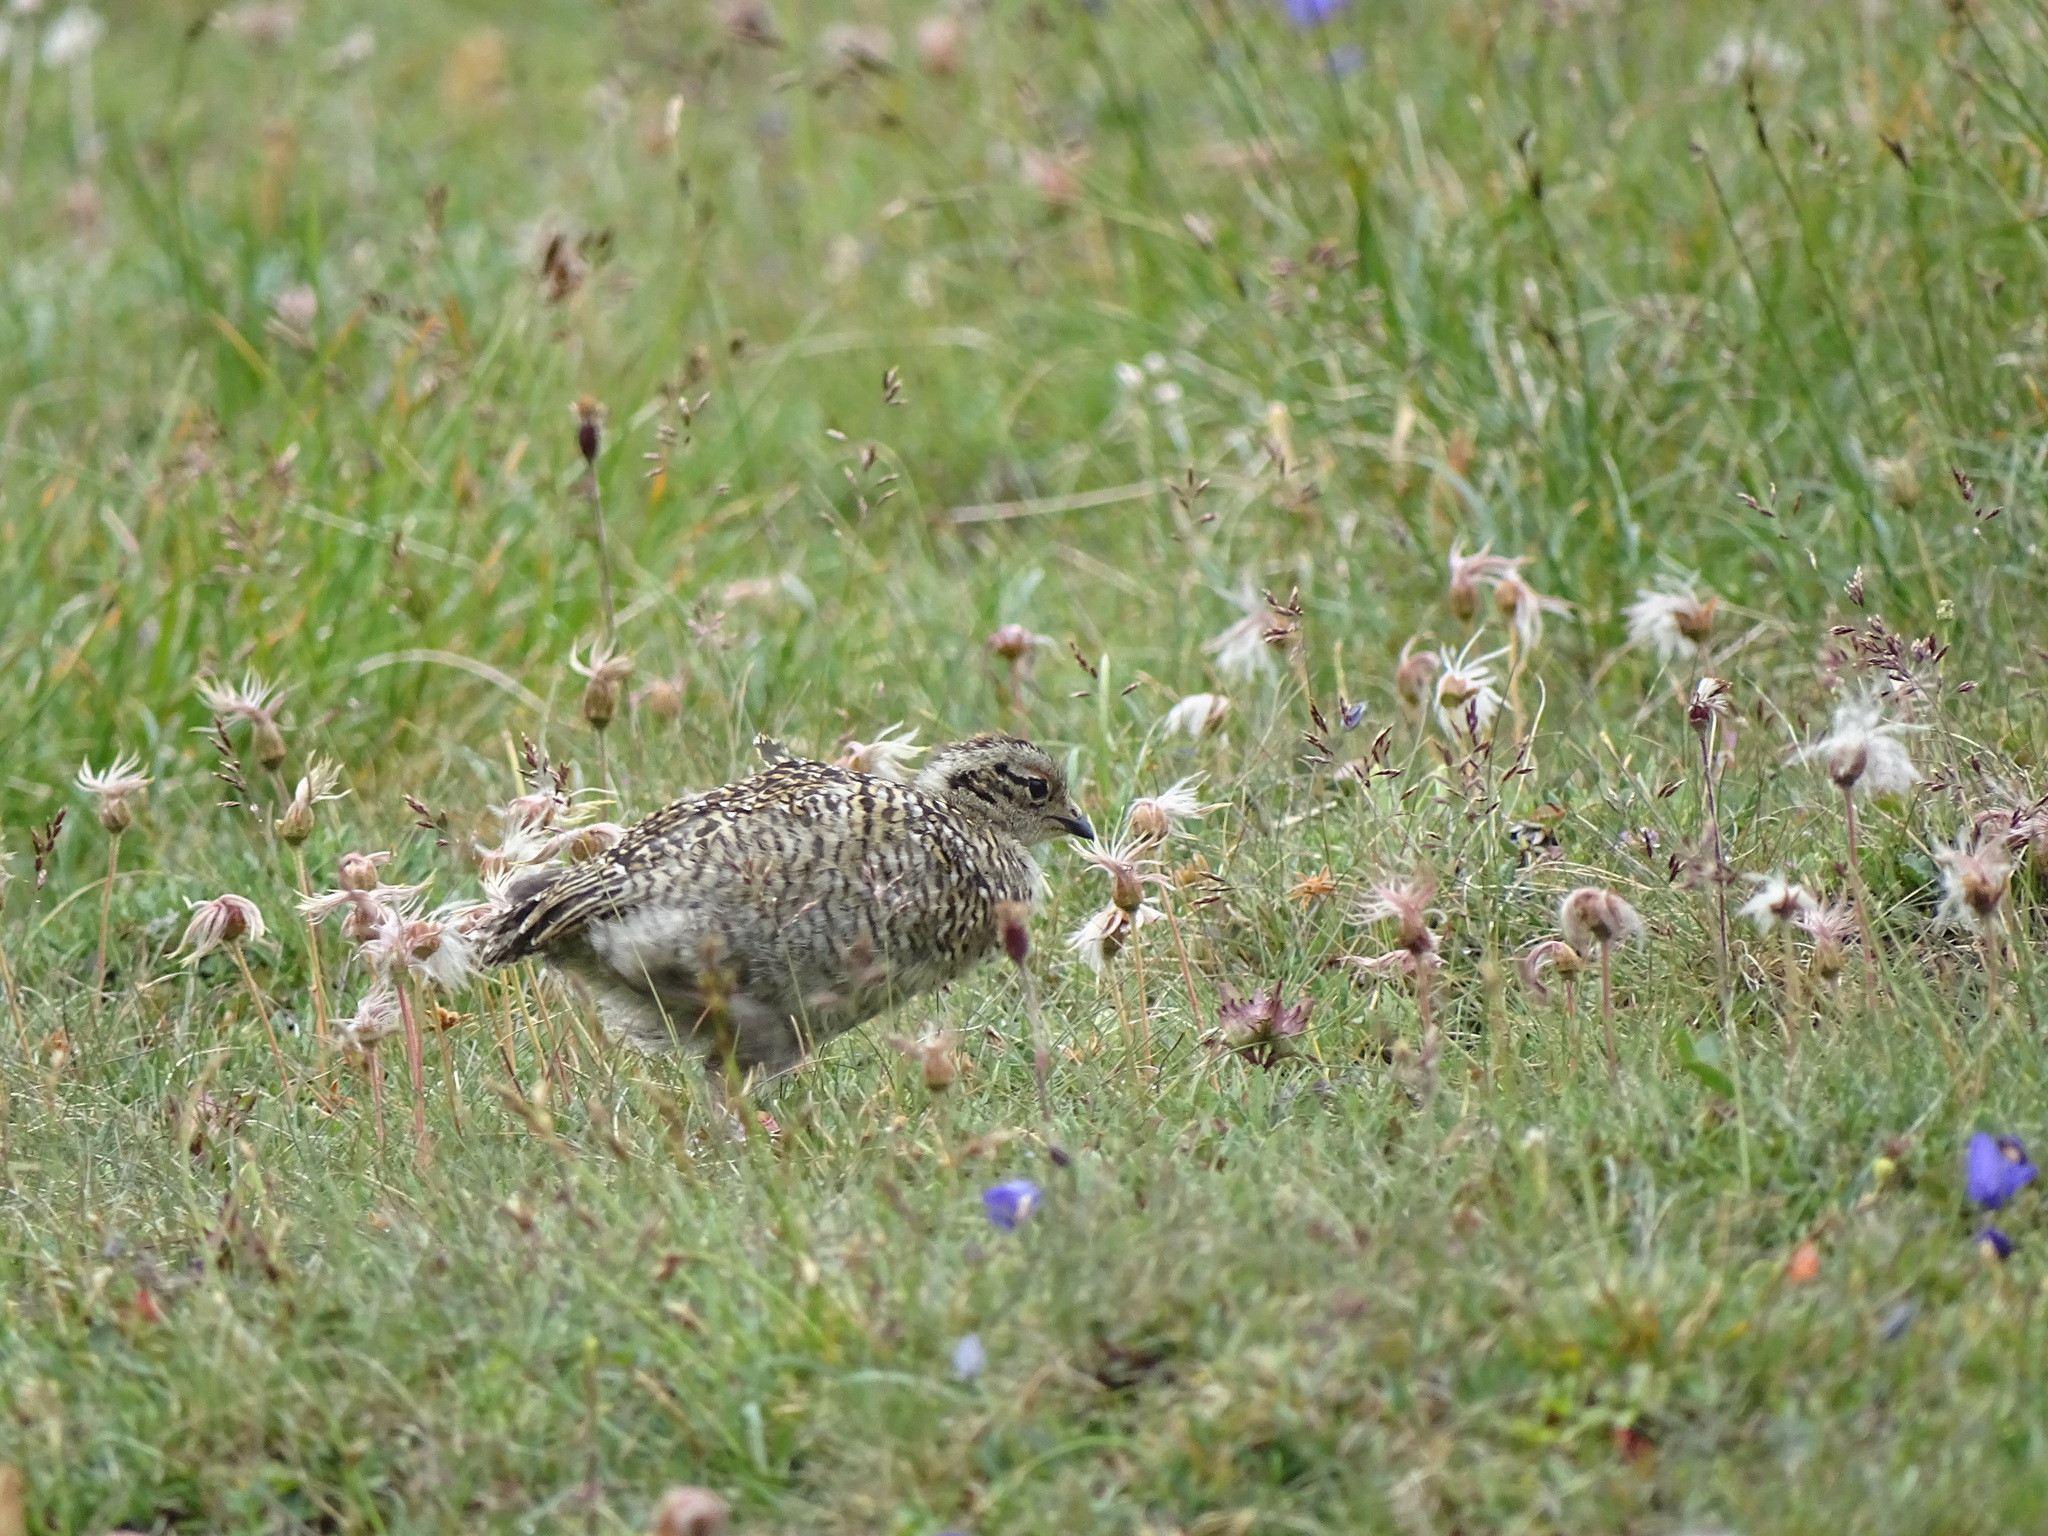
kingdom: Animalia
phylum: Chordata
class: Aves
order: Galliformes
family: Phasianidae
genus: Lagopus
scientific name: Lagopus muta
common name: Rock ptarmigan
